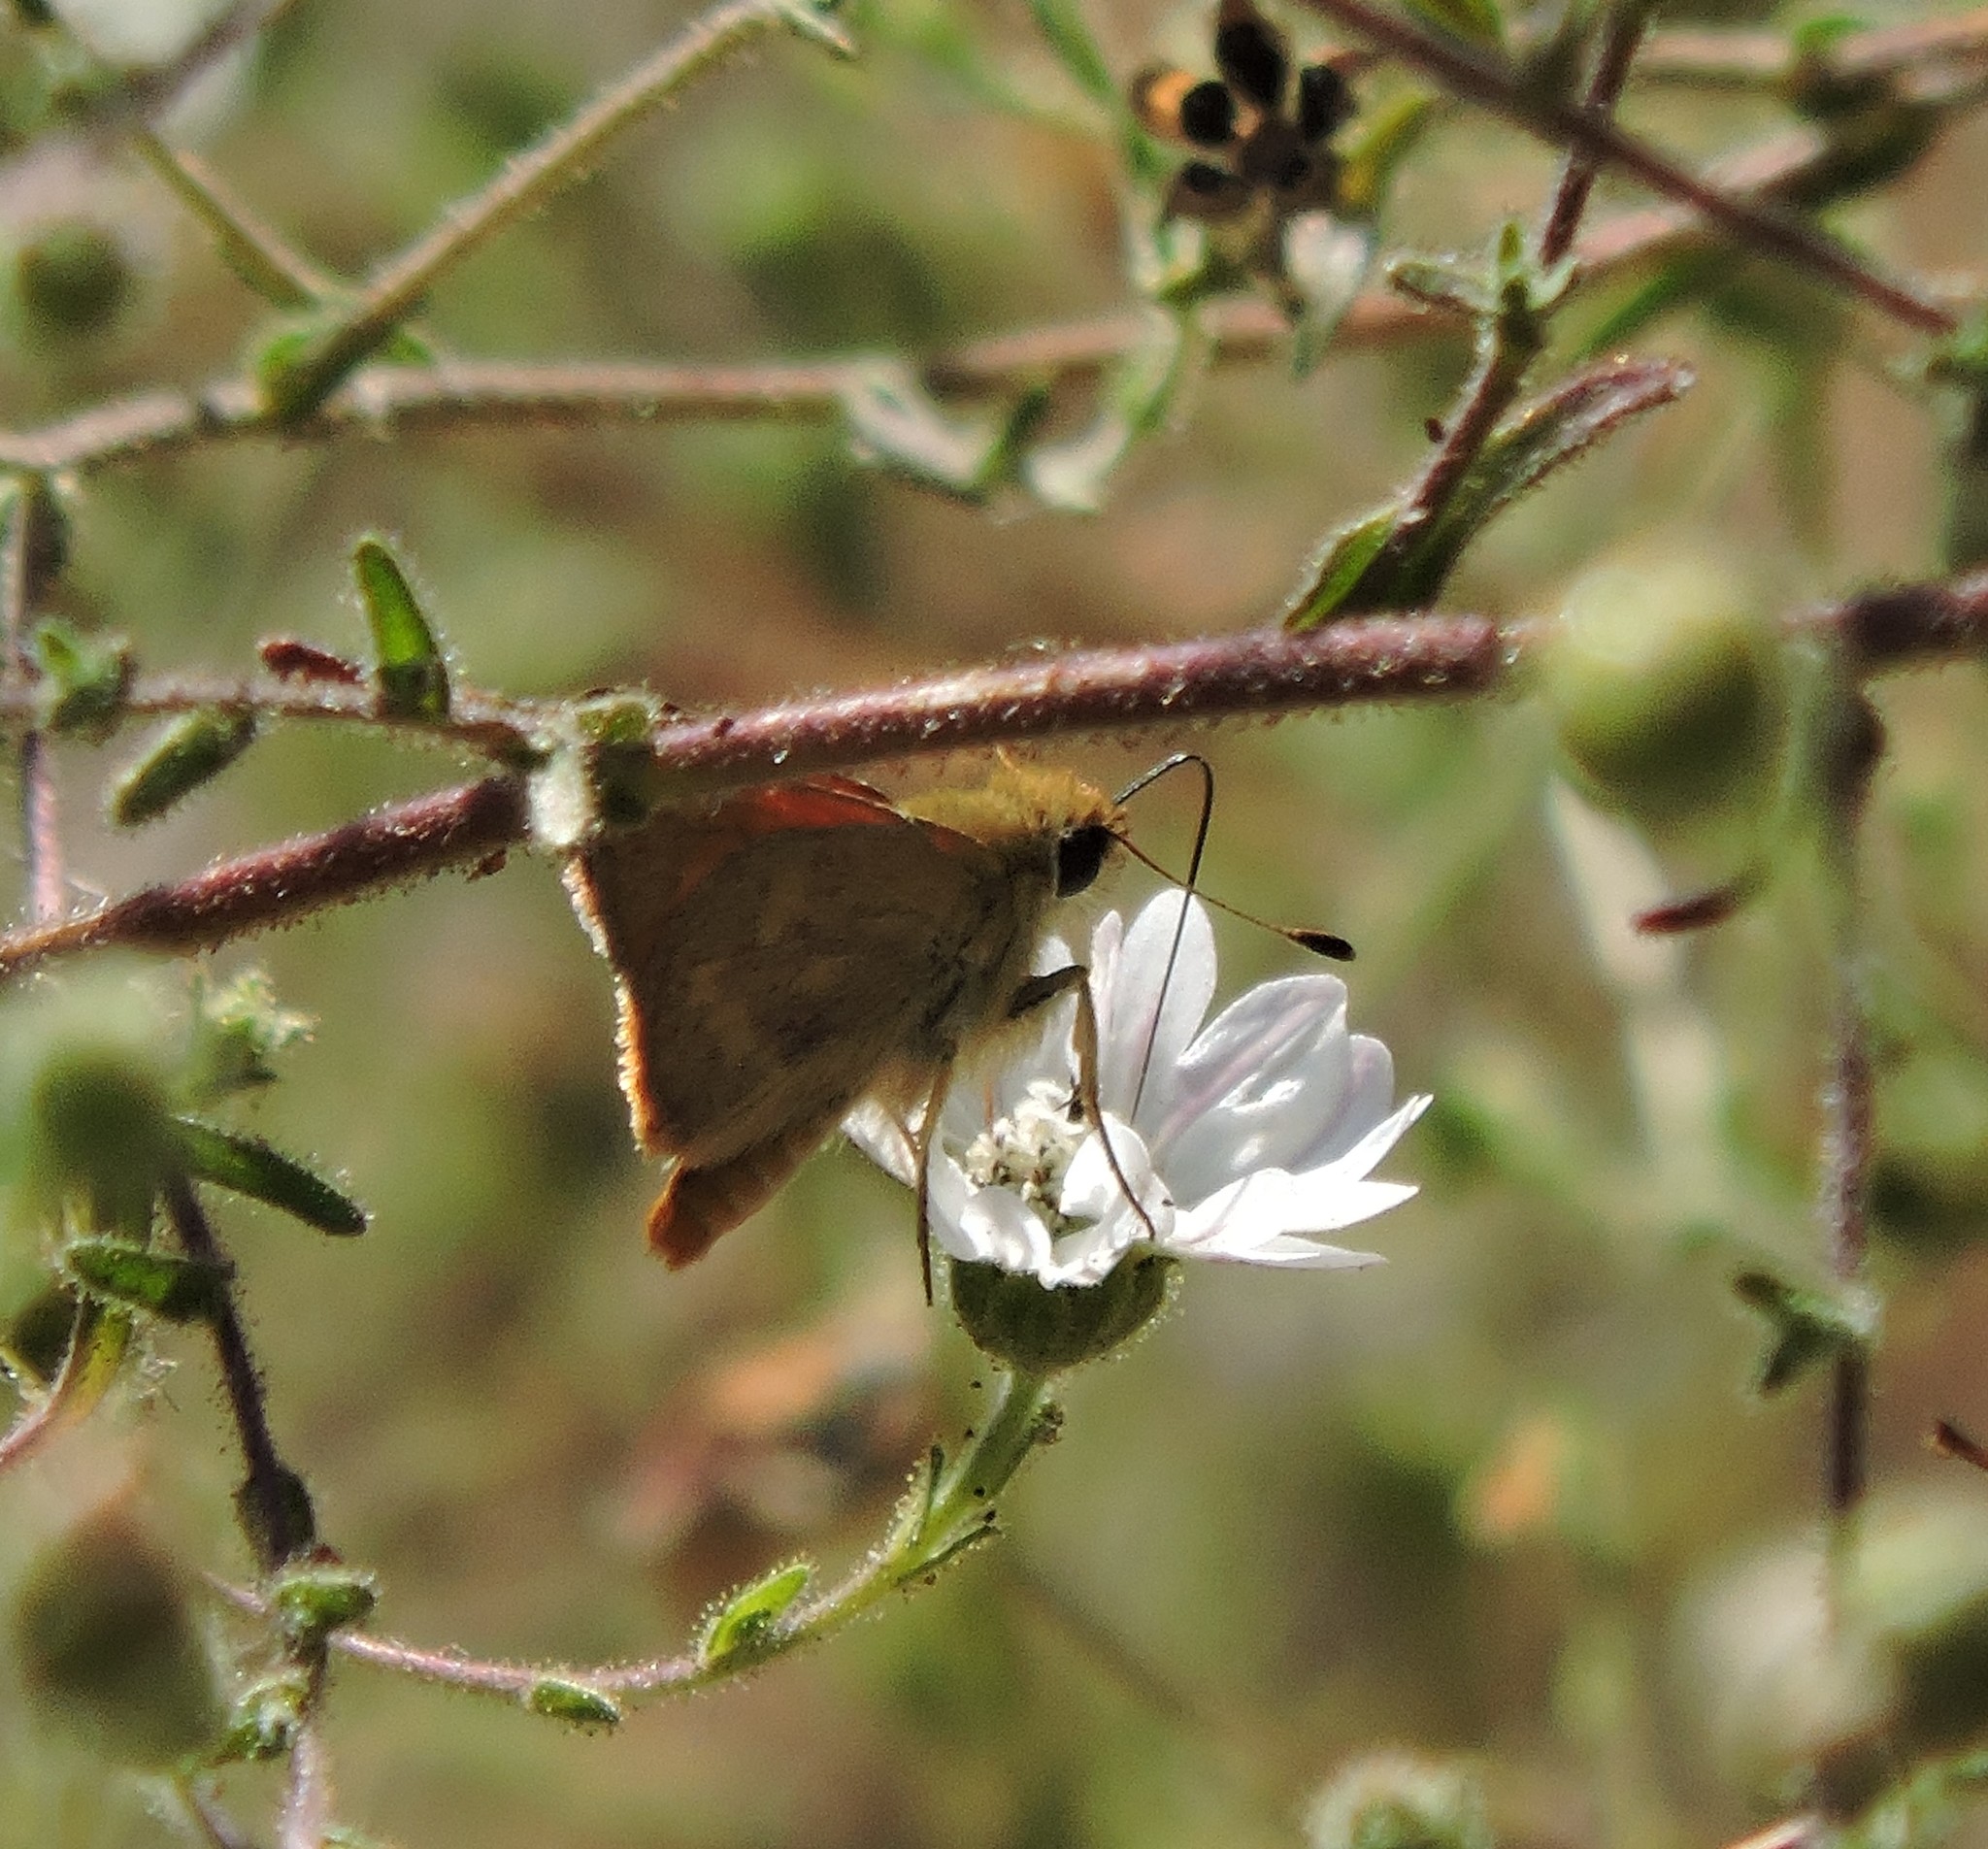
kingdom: Animalia
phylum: Arthropoda
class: Insecta
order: Lepidoptera
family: Hesperiidae
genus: Ochlodes
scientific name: Ochlodes sylvanoides
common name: Woodland skipper
